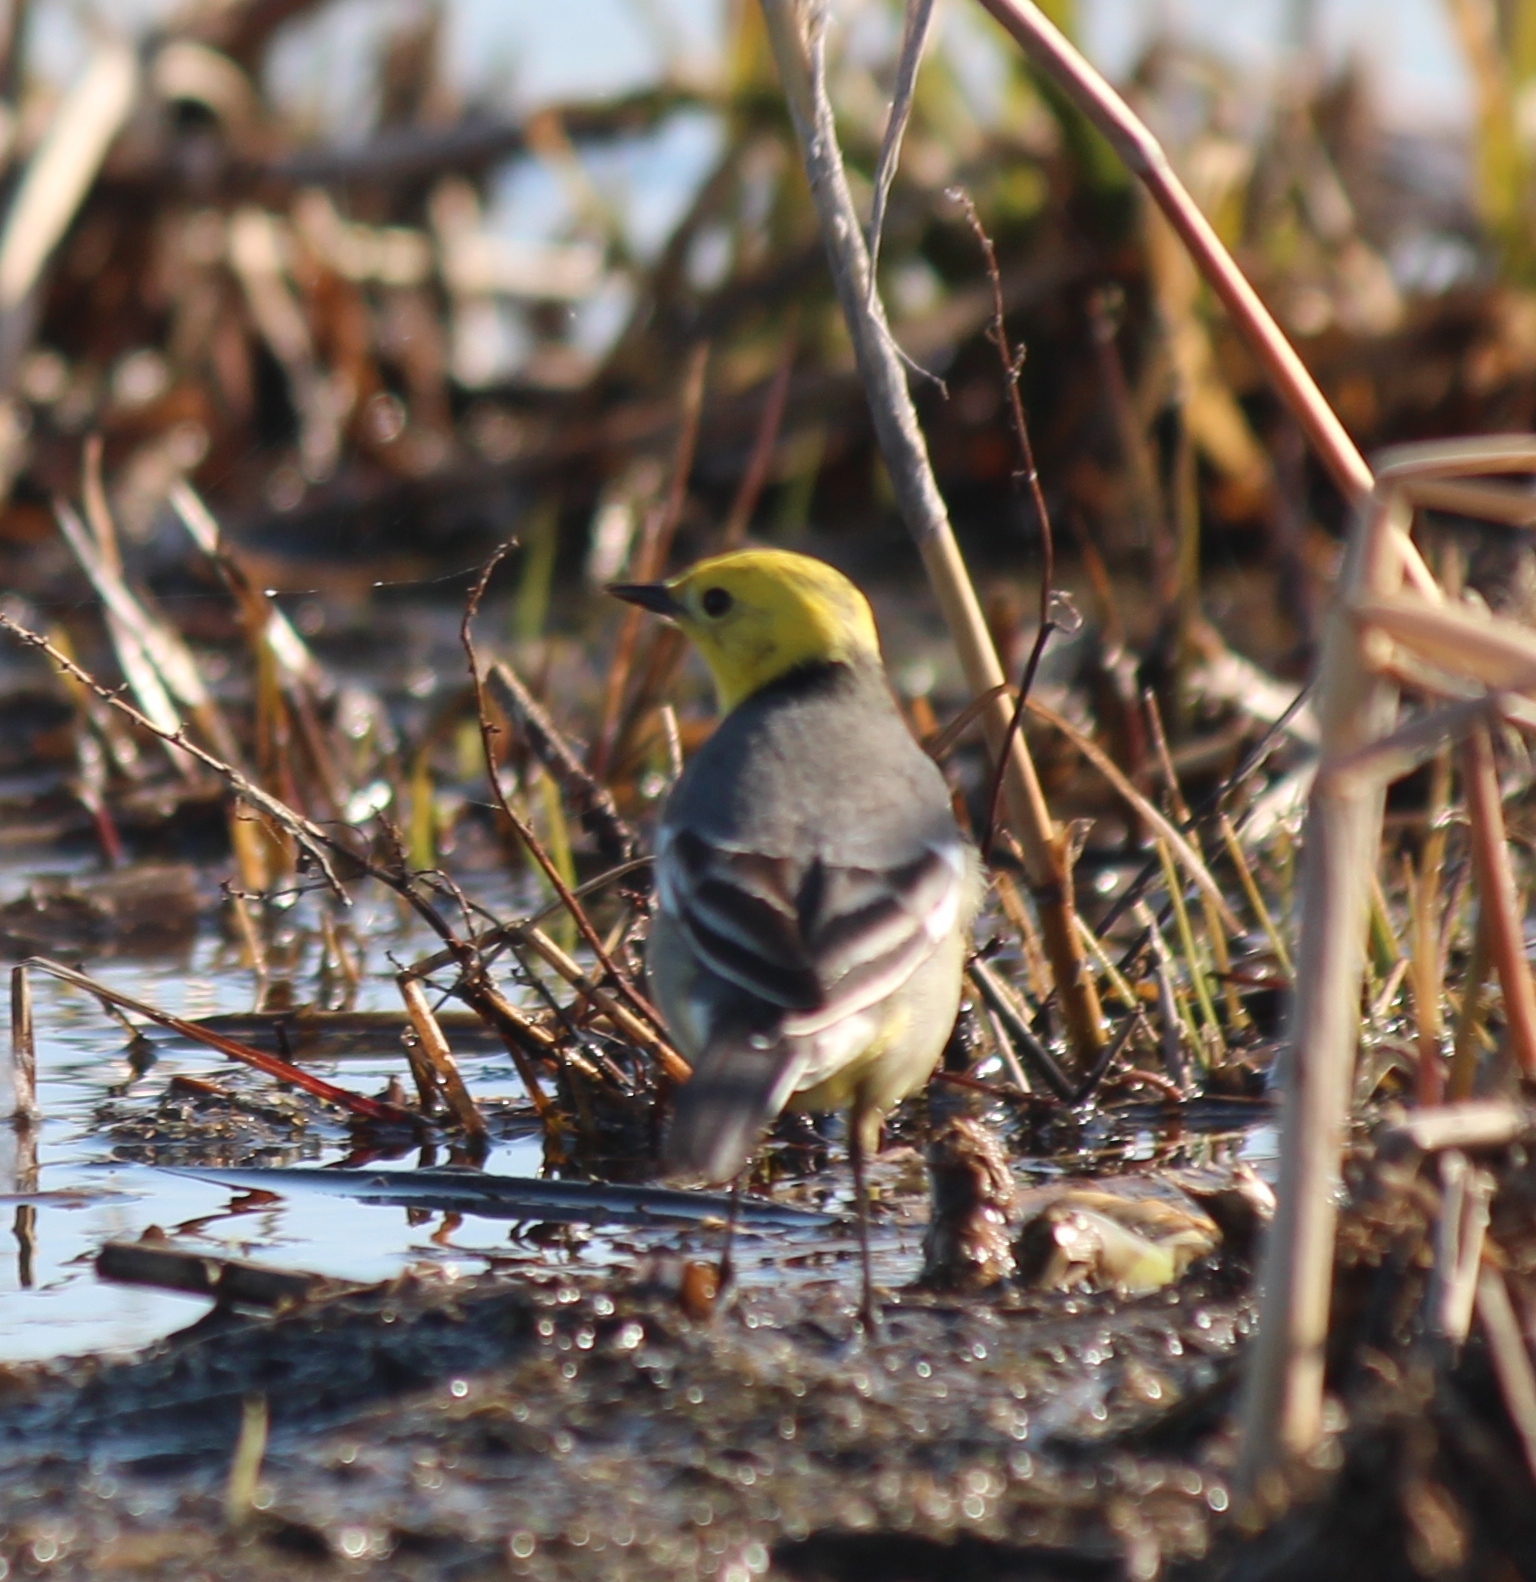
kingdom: Animalia
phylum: Chordata
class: Aves
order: Passeriformes
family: Motacillidae
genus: Motacilla
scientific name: Motacilla citreola
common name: Citrine wagtail
